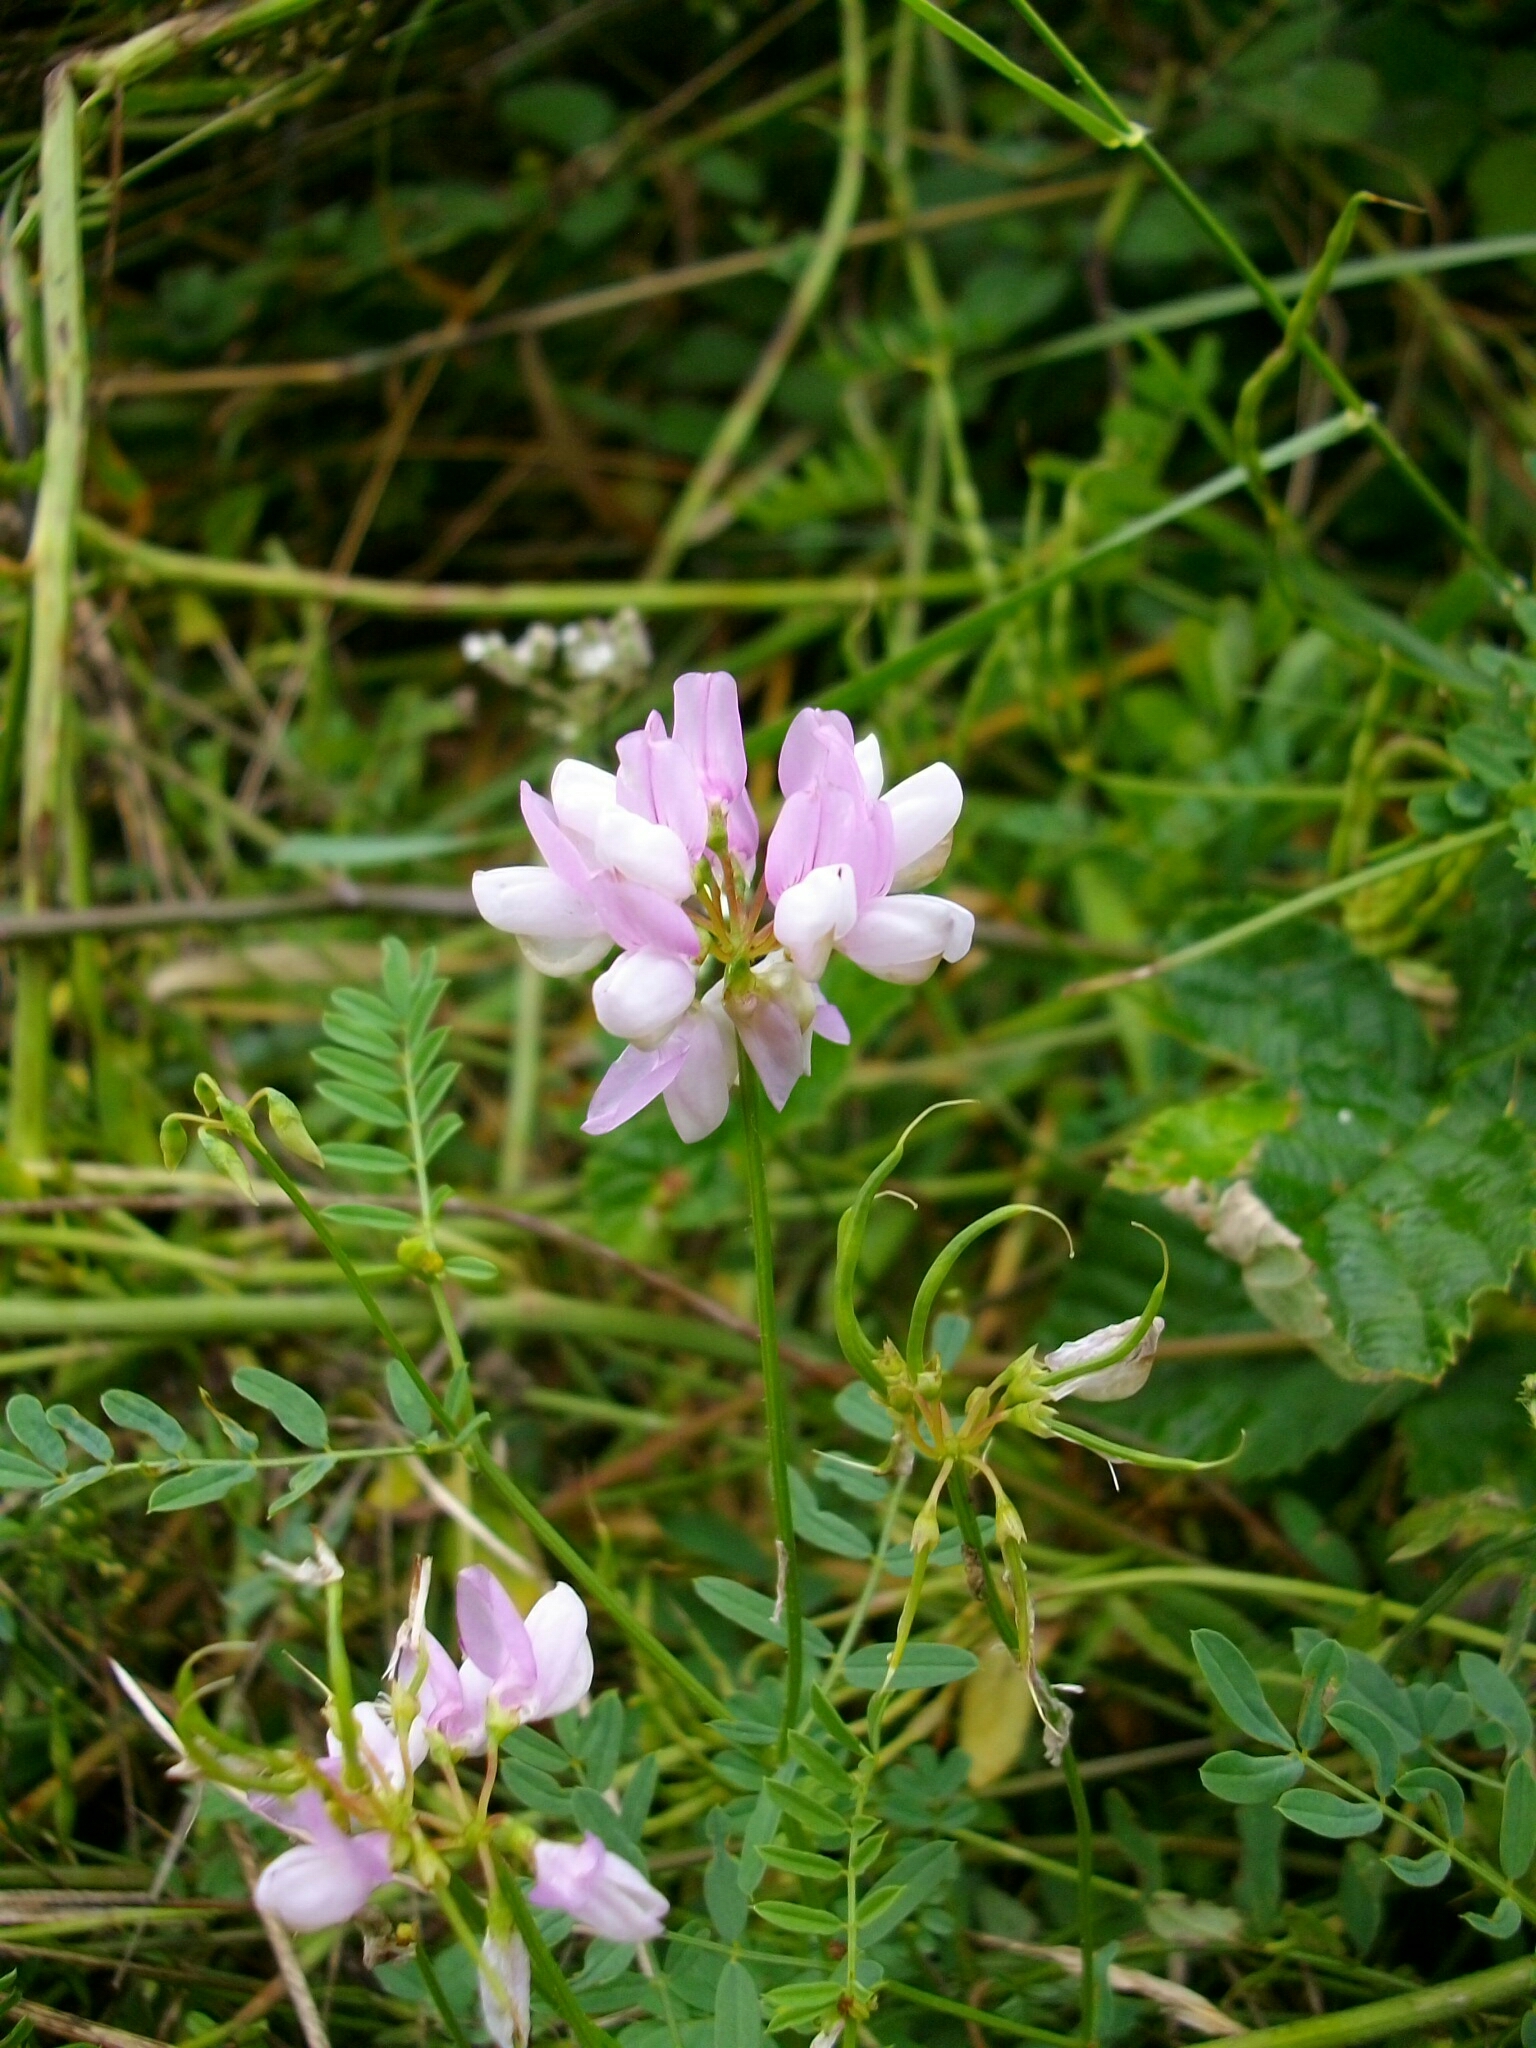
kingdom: Plantae
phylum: Tracheophyta
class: Magnoliopsida
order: Fabales
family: Fabaceae
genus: Coronilla
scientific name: Coronilla varia
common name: Crownvetch
